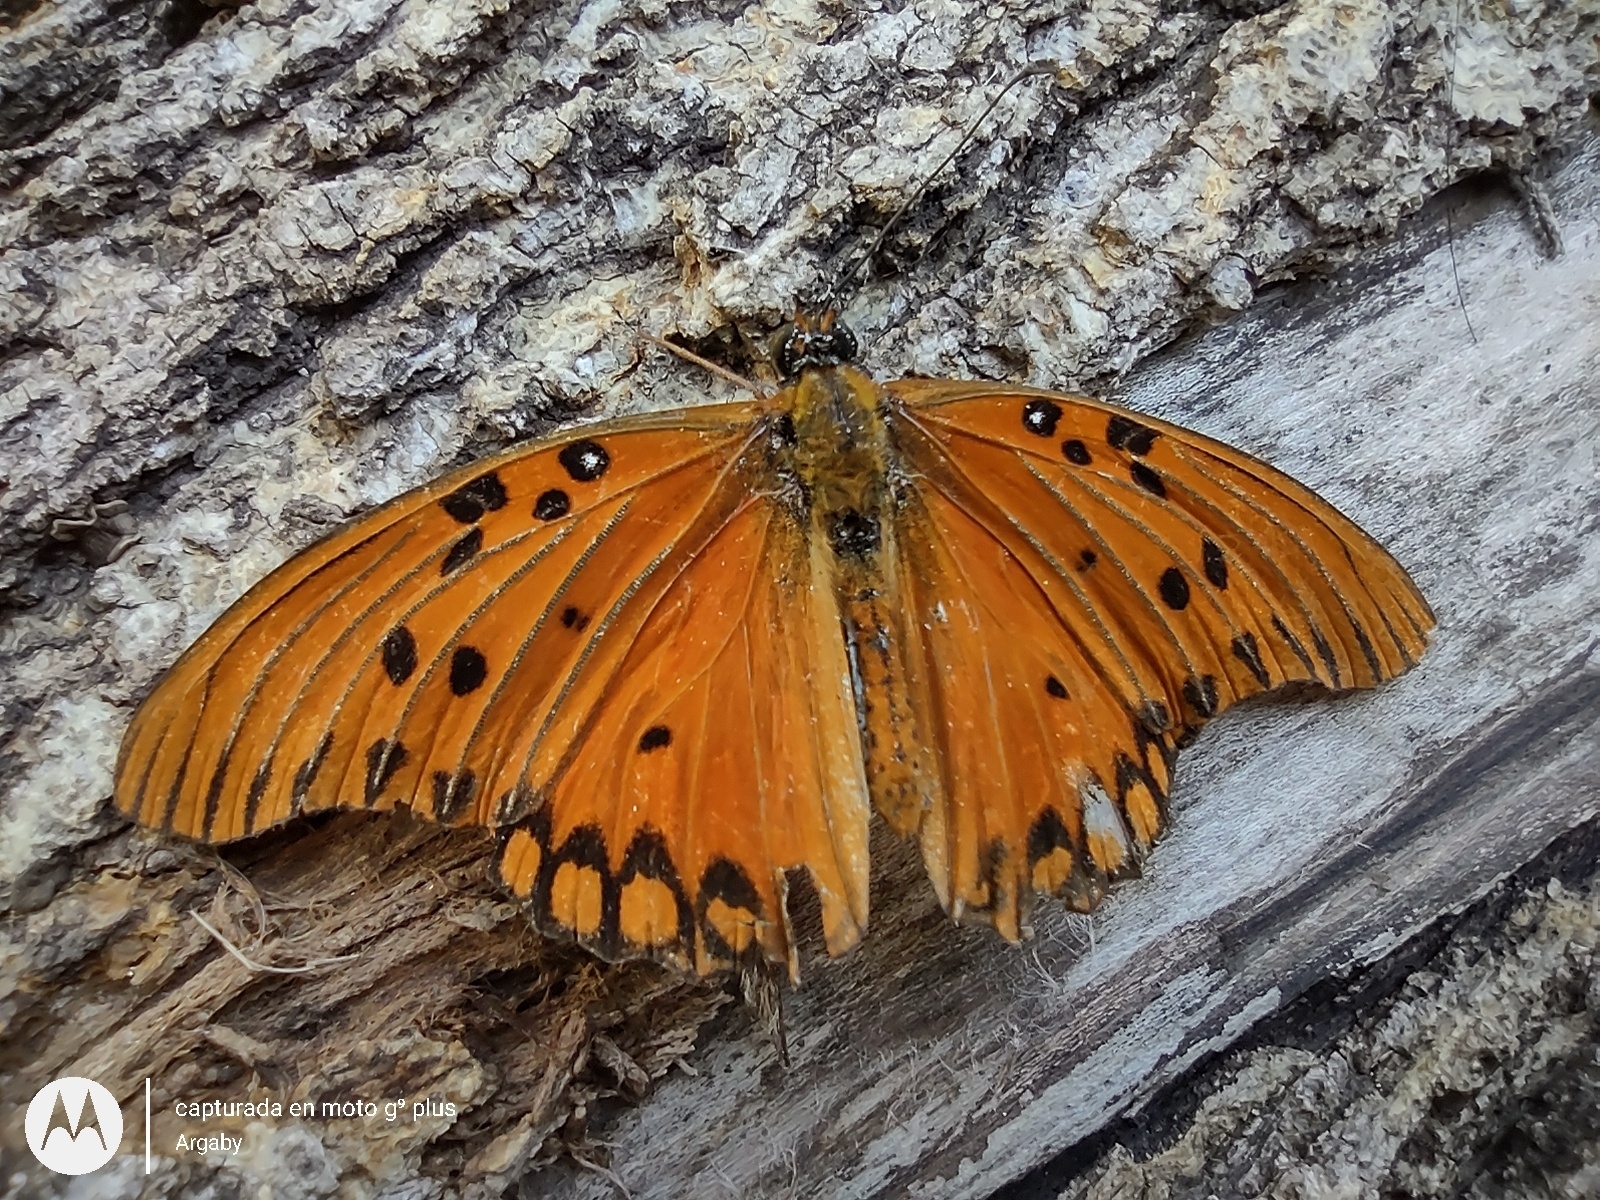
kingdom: Animalia
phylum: Arthropoda
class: Insecta
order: Lepidoptera
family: Nymphalidae
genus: Dione
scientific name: Dione vanillae
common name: Gulf fritillary
